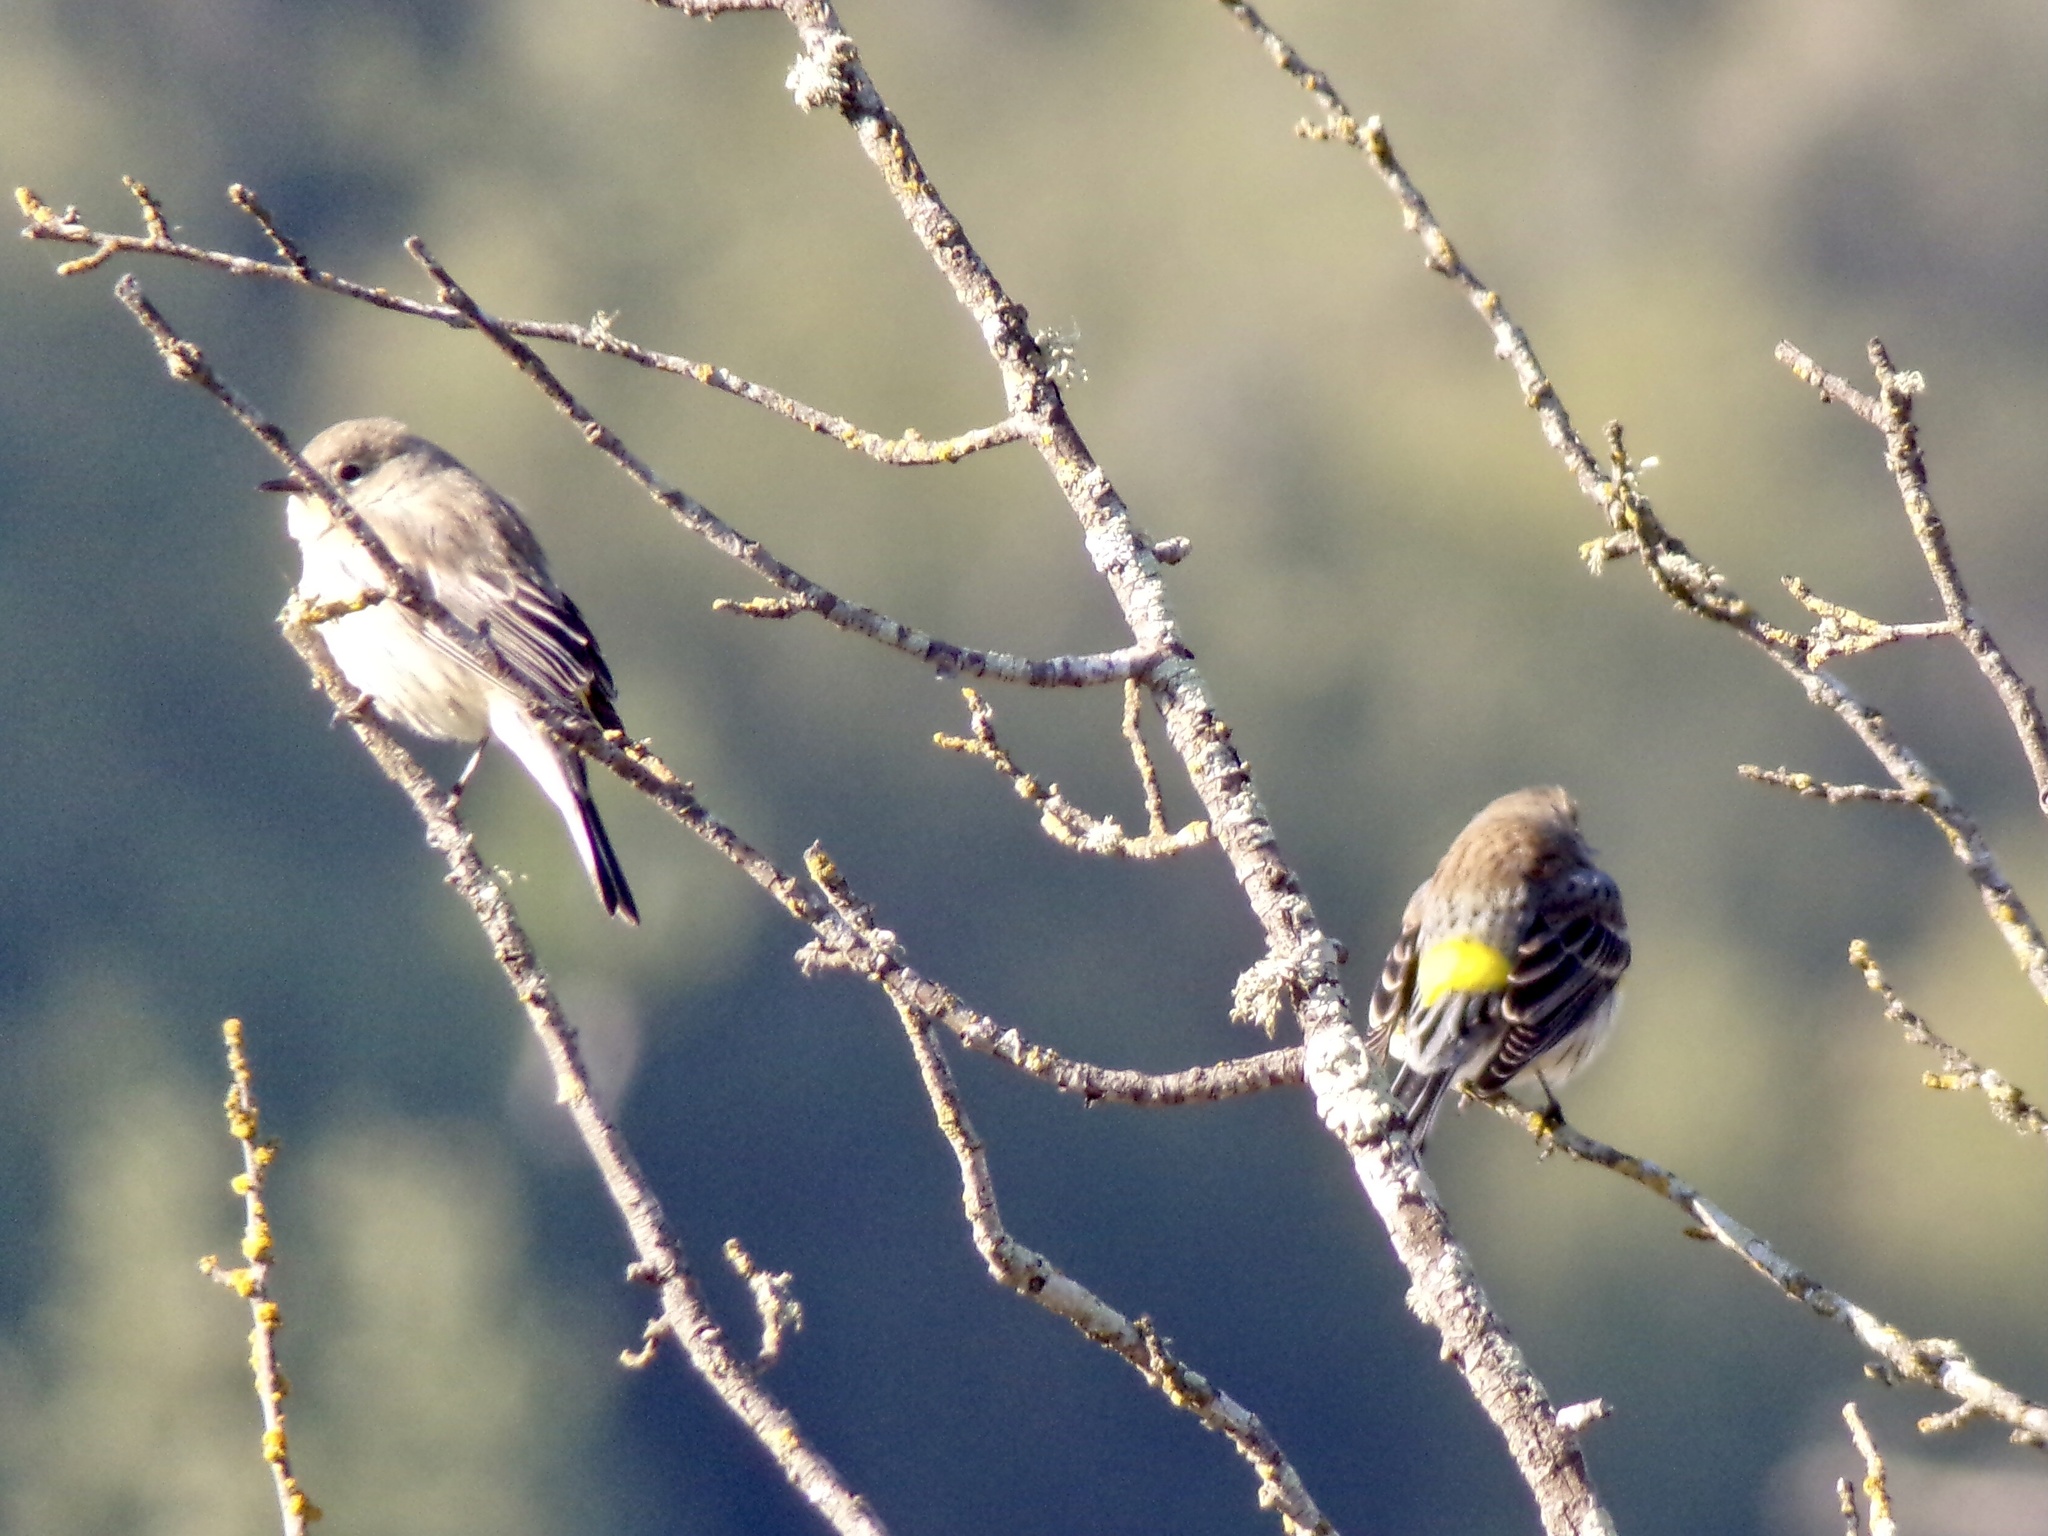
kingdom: Animalia
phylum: Chordata
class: Aves
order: Passeriformes
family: Parulidae
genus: Setophaga
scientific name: Setophaga coronata
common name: Myrtle warbler
